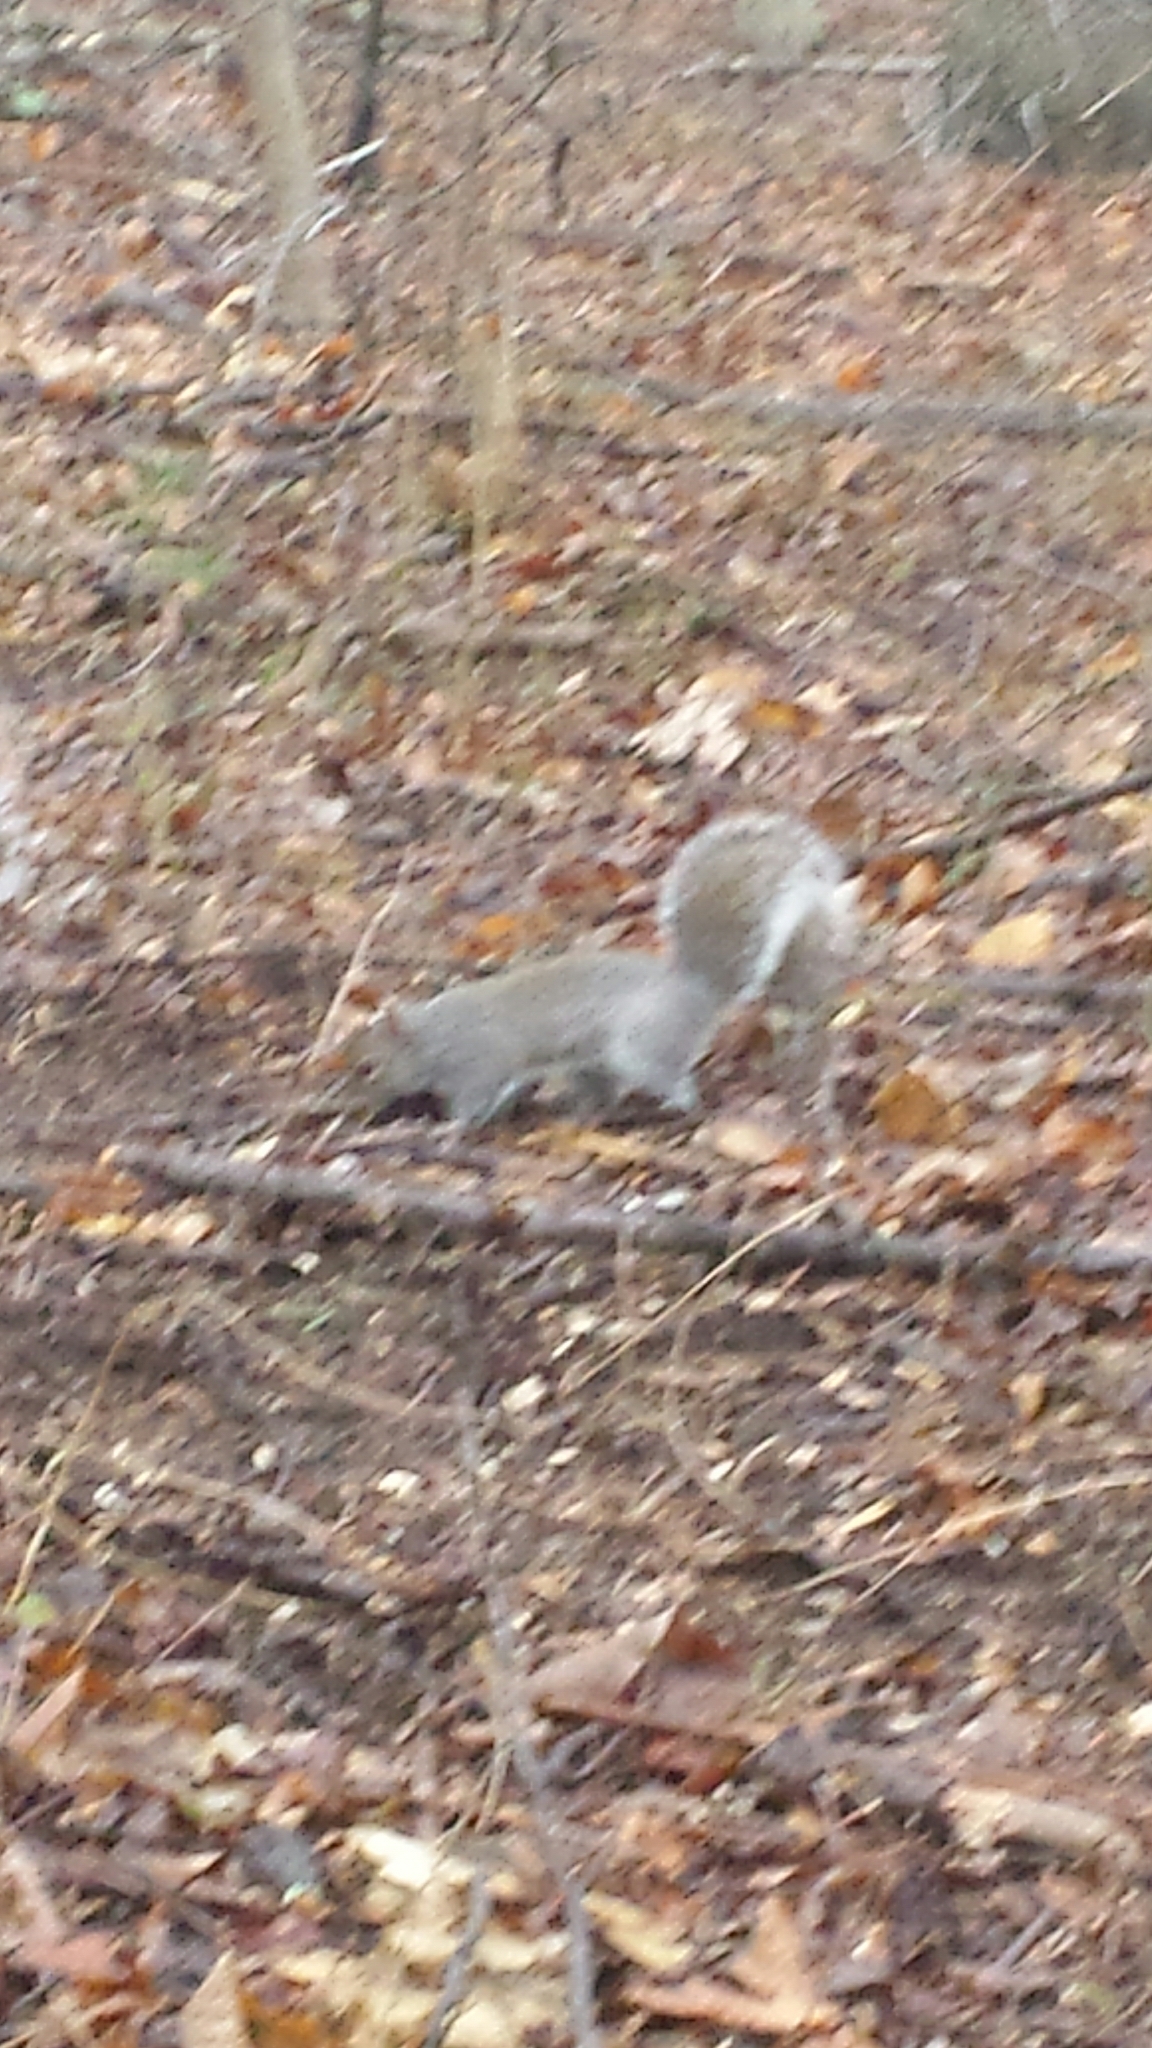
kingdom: Animalia
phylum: Chordata
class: Mammalia
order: Rodentia
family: Sciuridae
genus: Sciurus
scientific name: Sciurus carolinensis
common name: Eastern gray squirrel
